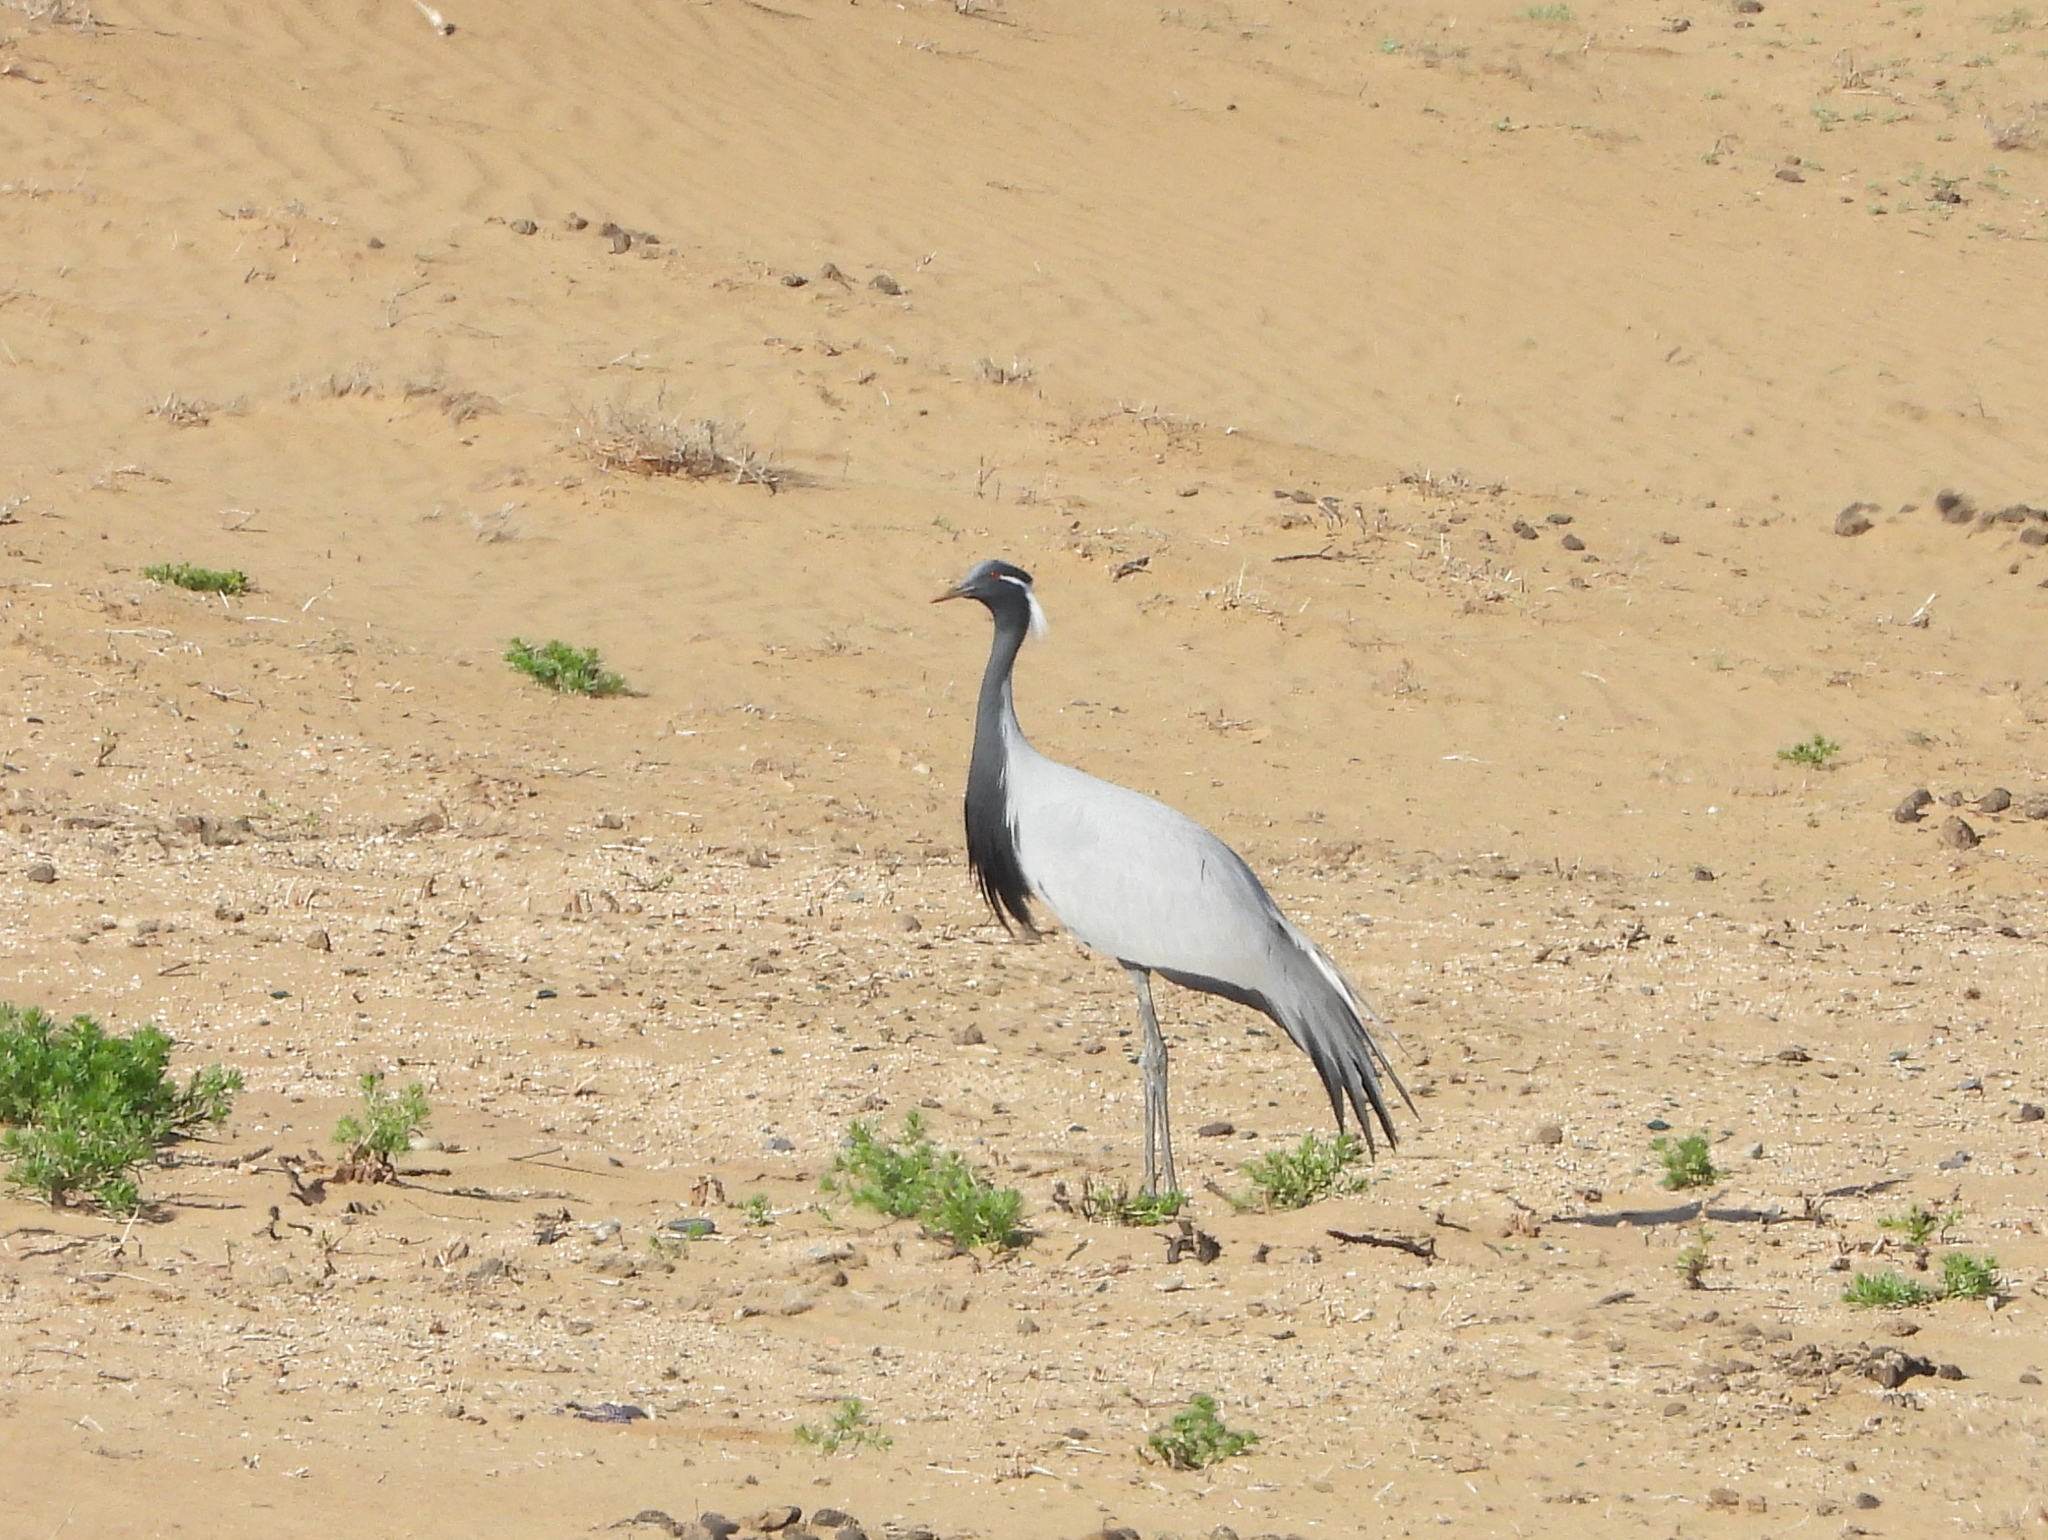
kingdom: Animalia
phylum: Chordata
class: Aves
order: Gruiformes
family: Gruidae
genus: Anthropoides
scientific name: Anthropoides virgo
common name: Demoiselle crane
